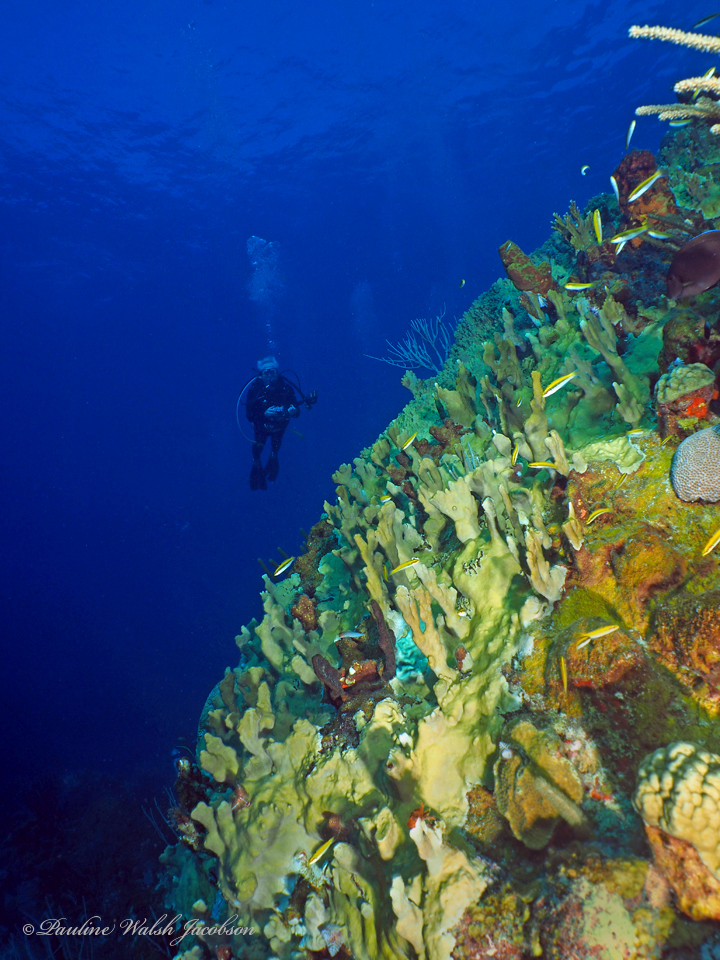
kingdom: Animalia
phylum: Chordata
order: Perciformes
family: Labridae
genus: Thalassoma
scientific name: Thalassoma bifasciatum
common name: Bluehead wrasse
